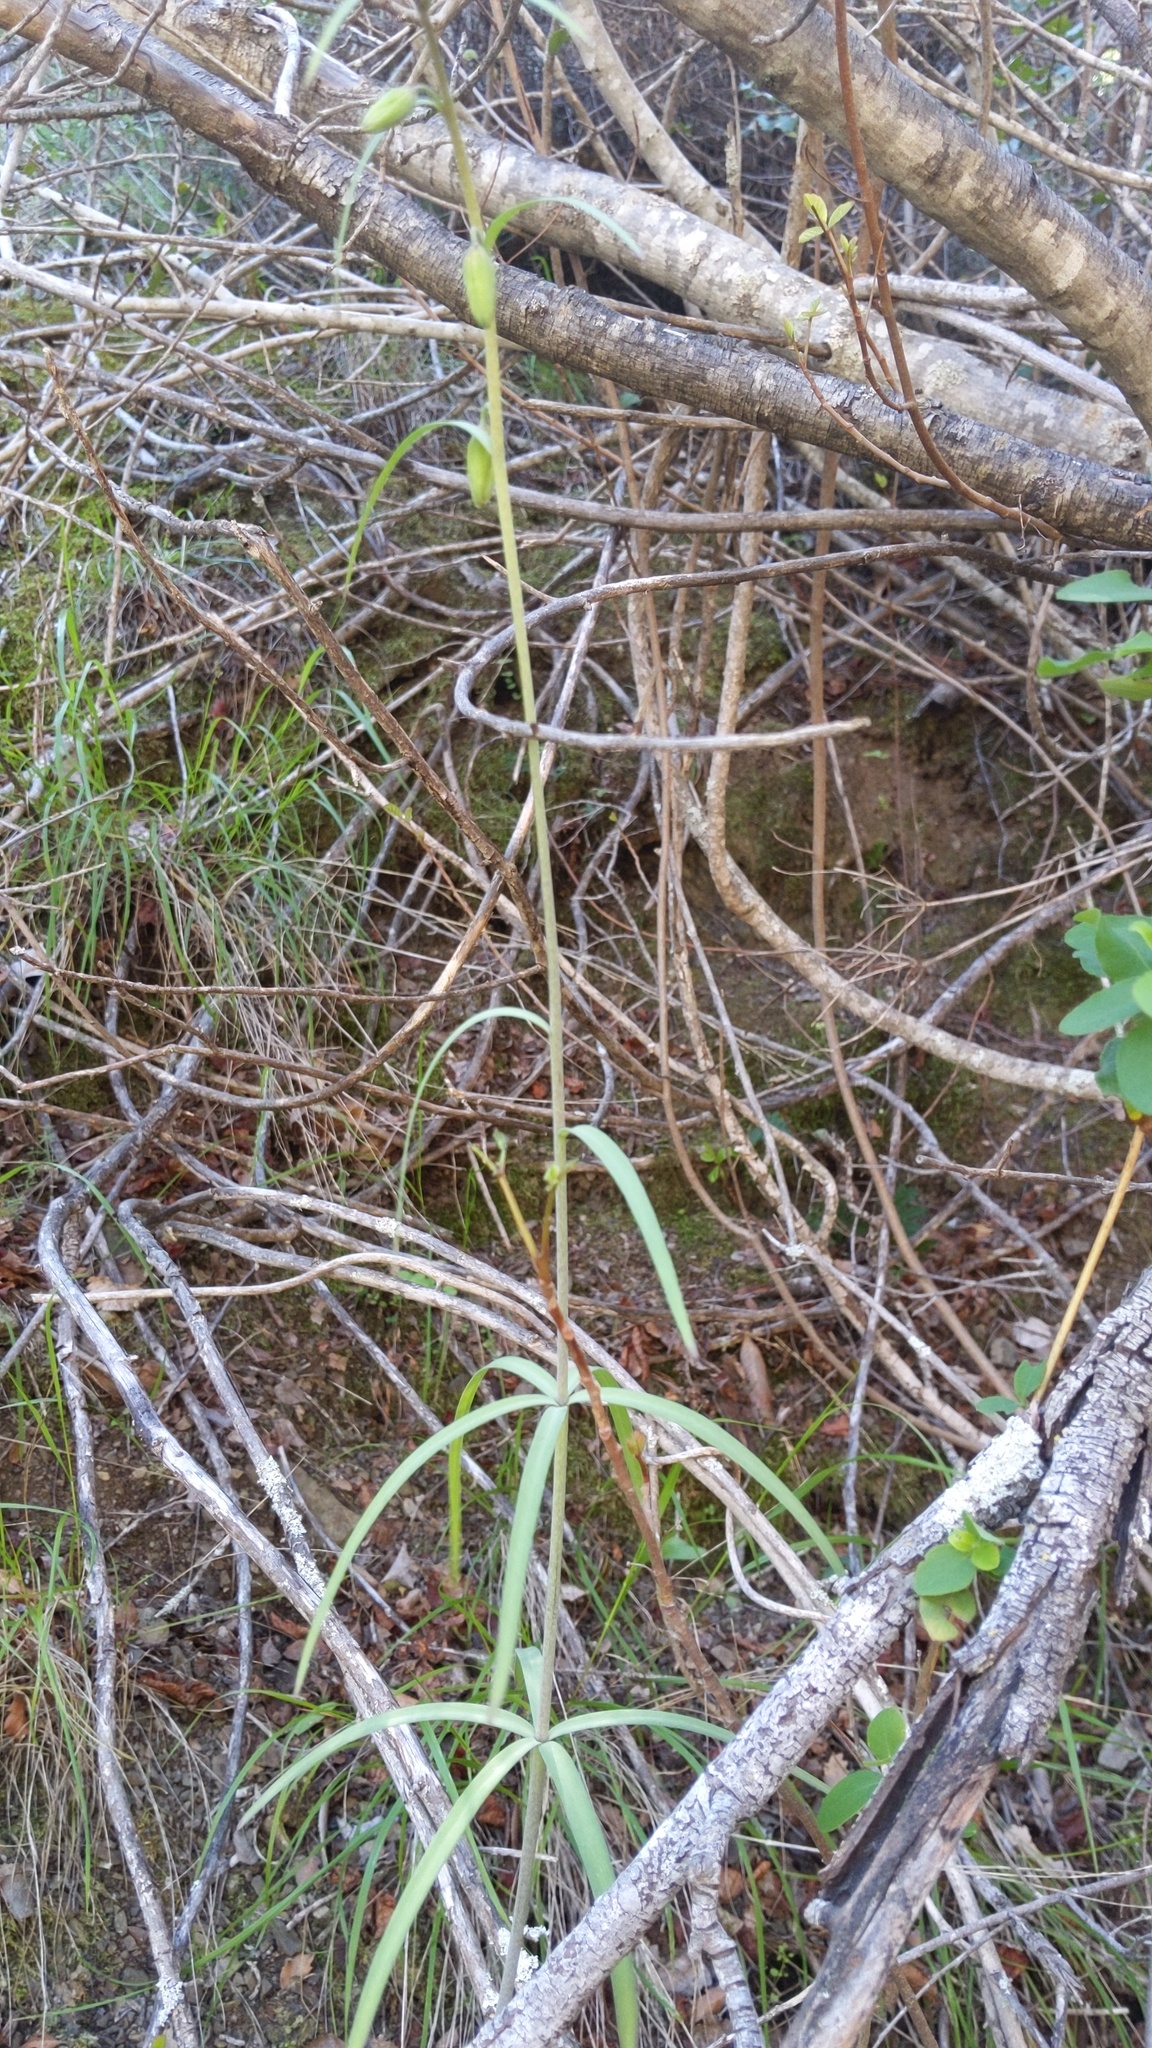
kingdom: Plantae
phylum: Tracheophyta
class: Liliopsida
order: Liliales
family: Liliaceae
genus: Fritillaria
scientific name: Fritillaria ojaiensis
